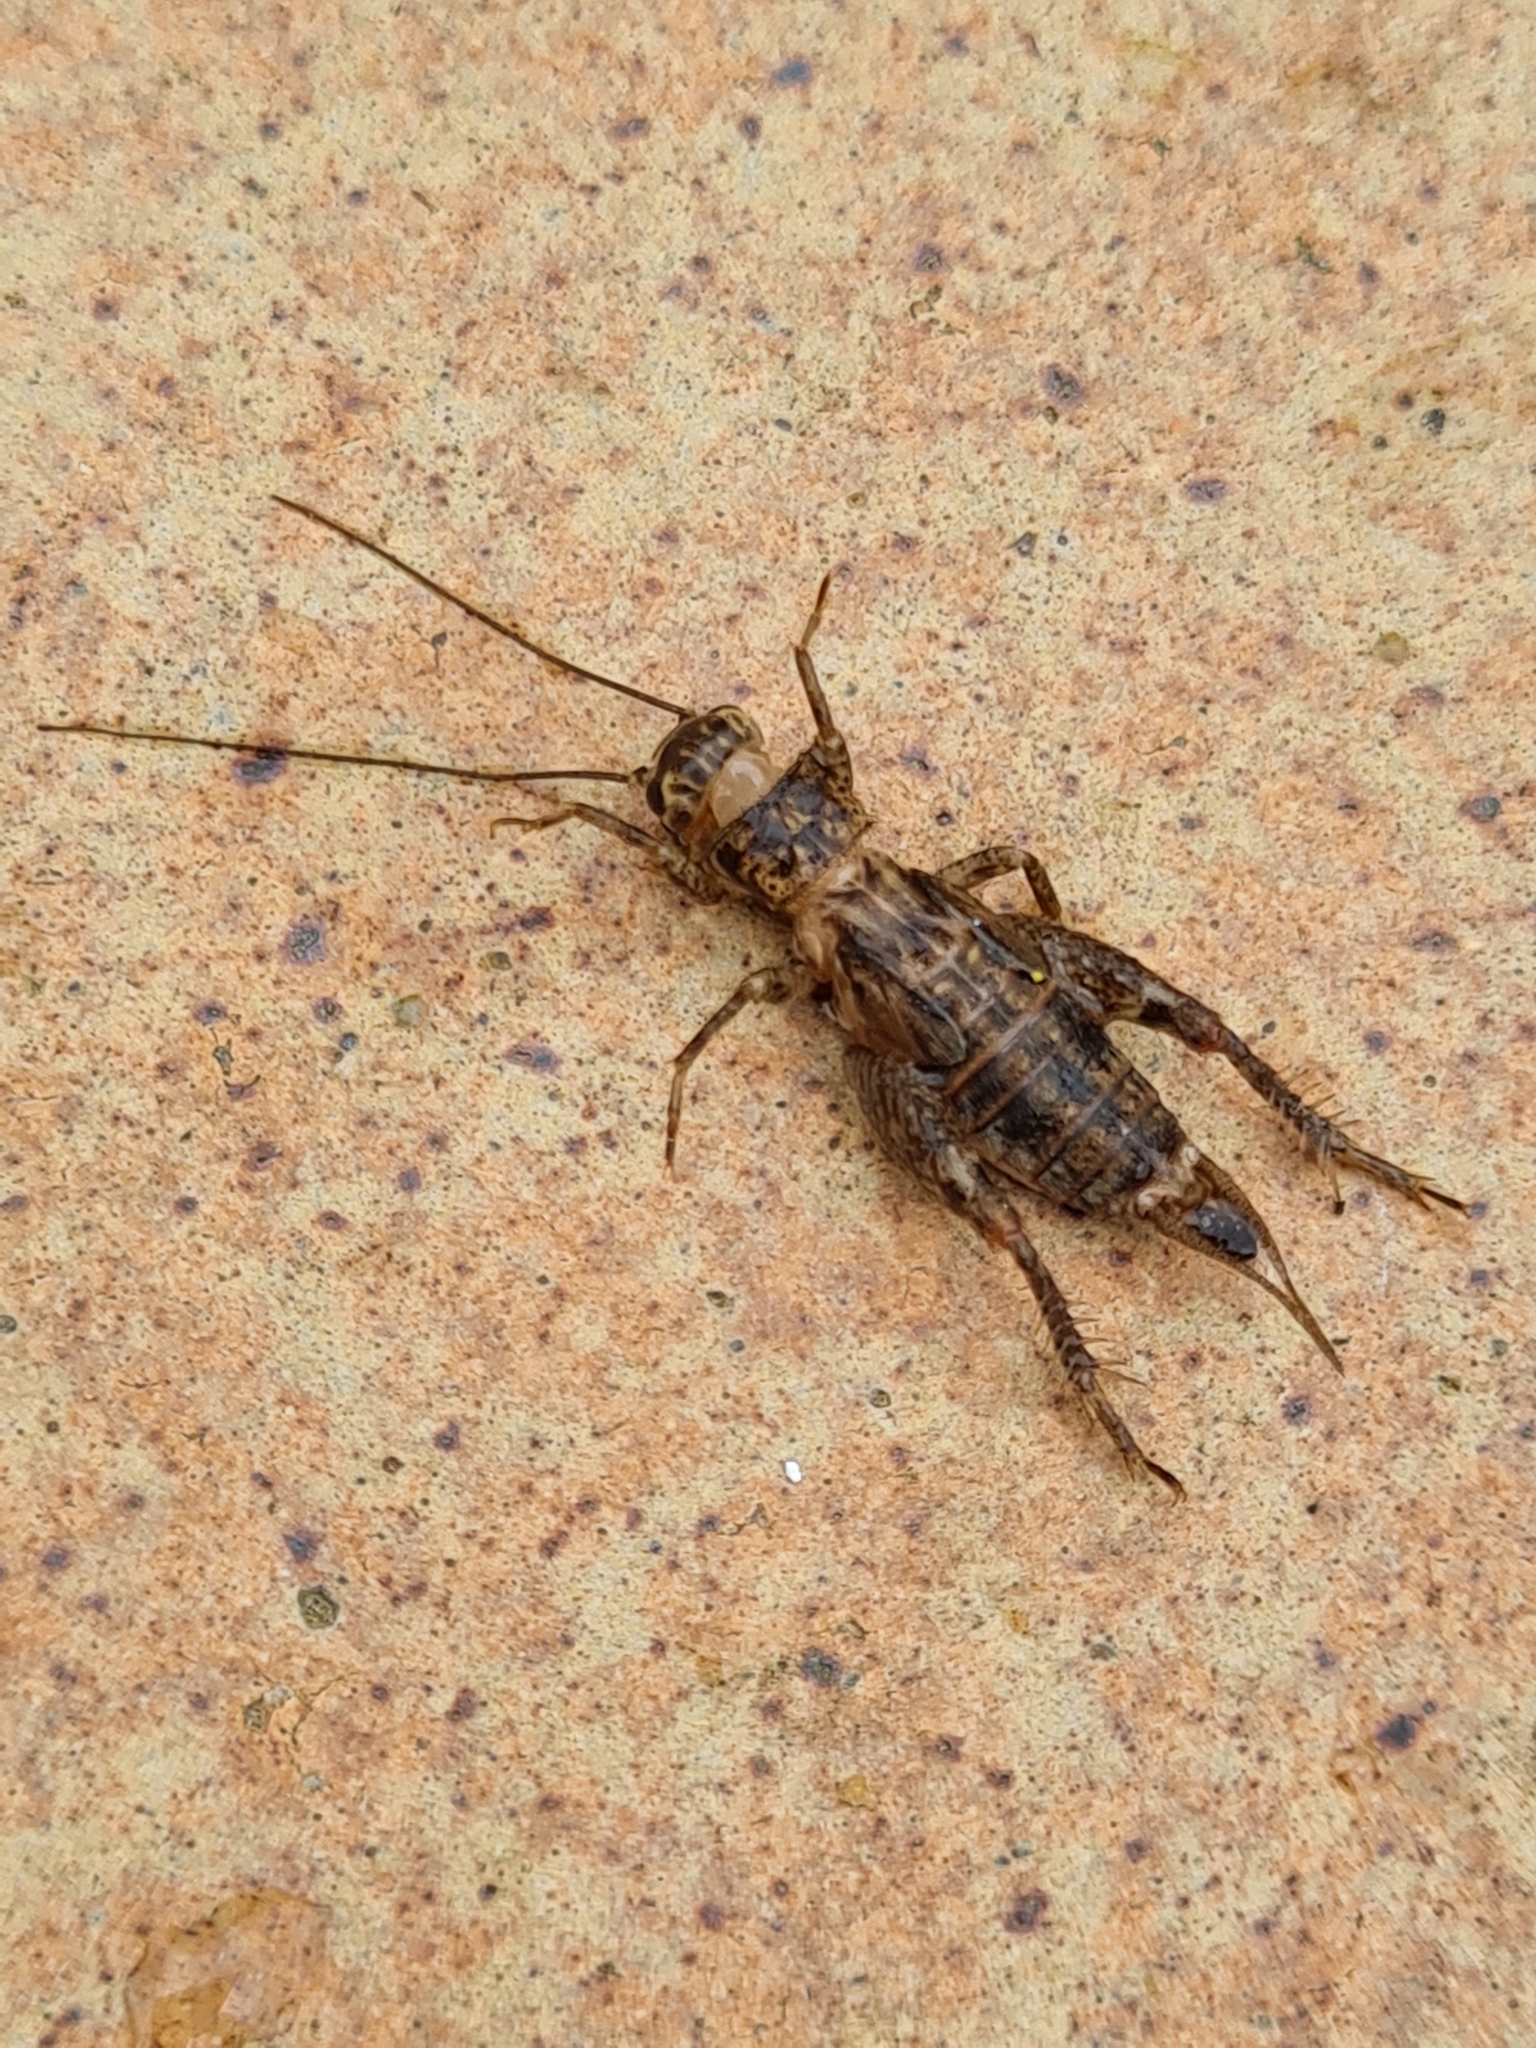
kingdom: Animalia
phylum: Arthropoda
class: Insecta
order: Orthoptera
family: Gryllidae
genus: Eumodicogryllus
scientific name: Eumodicogryllus bordigalensis
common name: Bordeaux cricket
